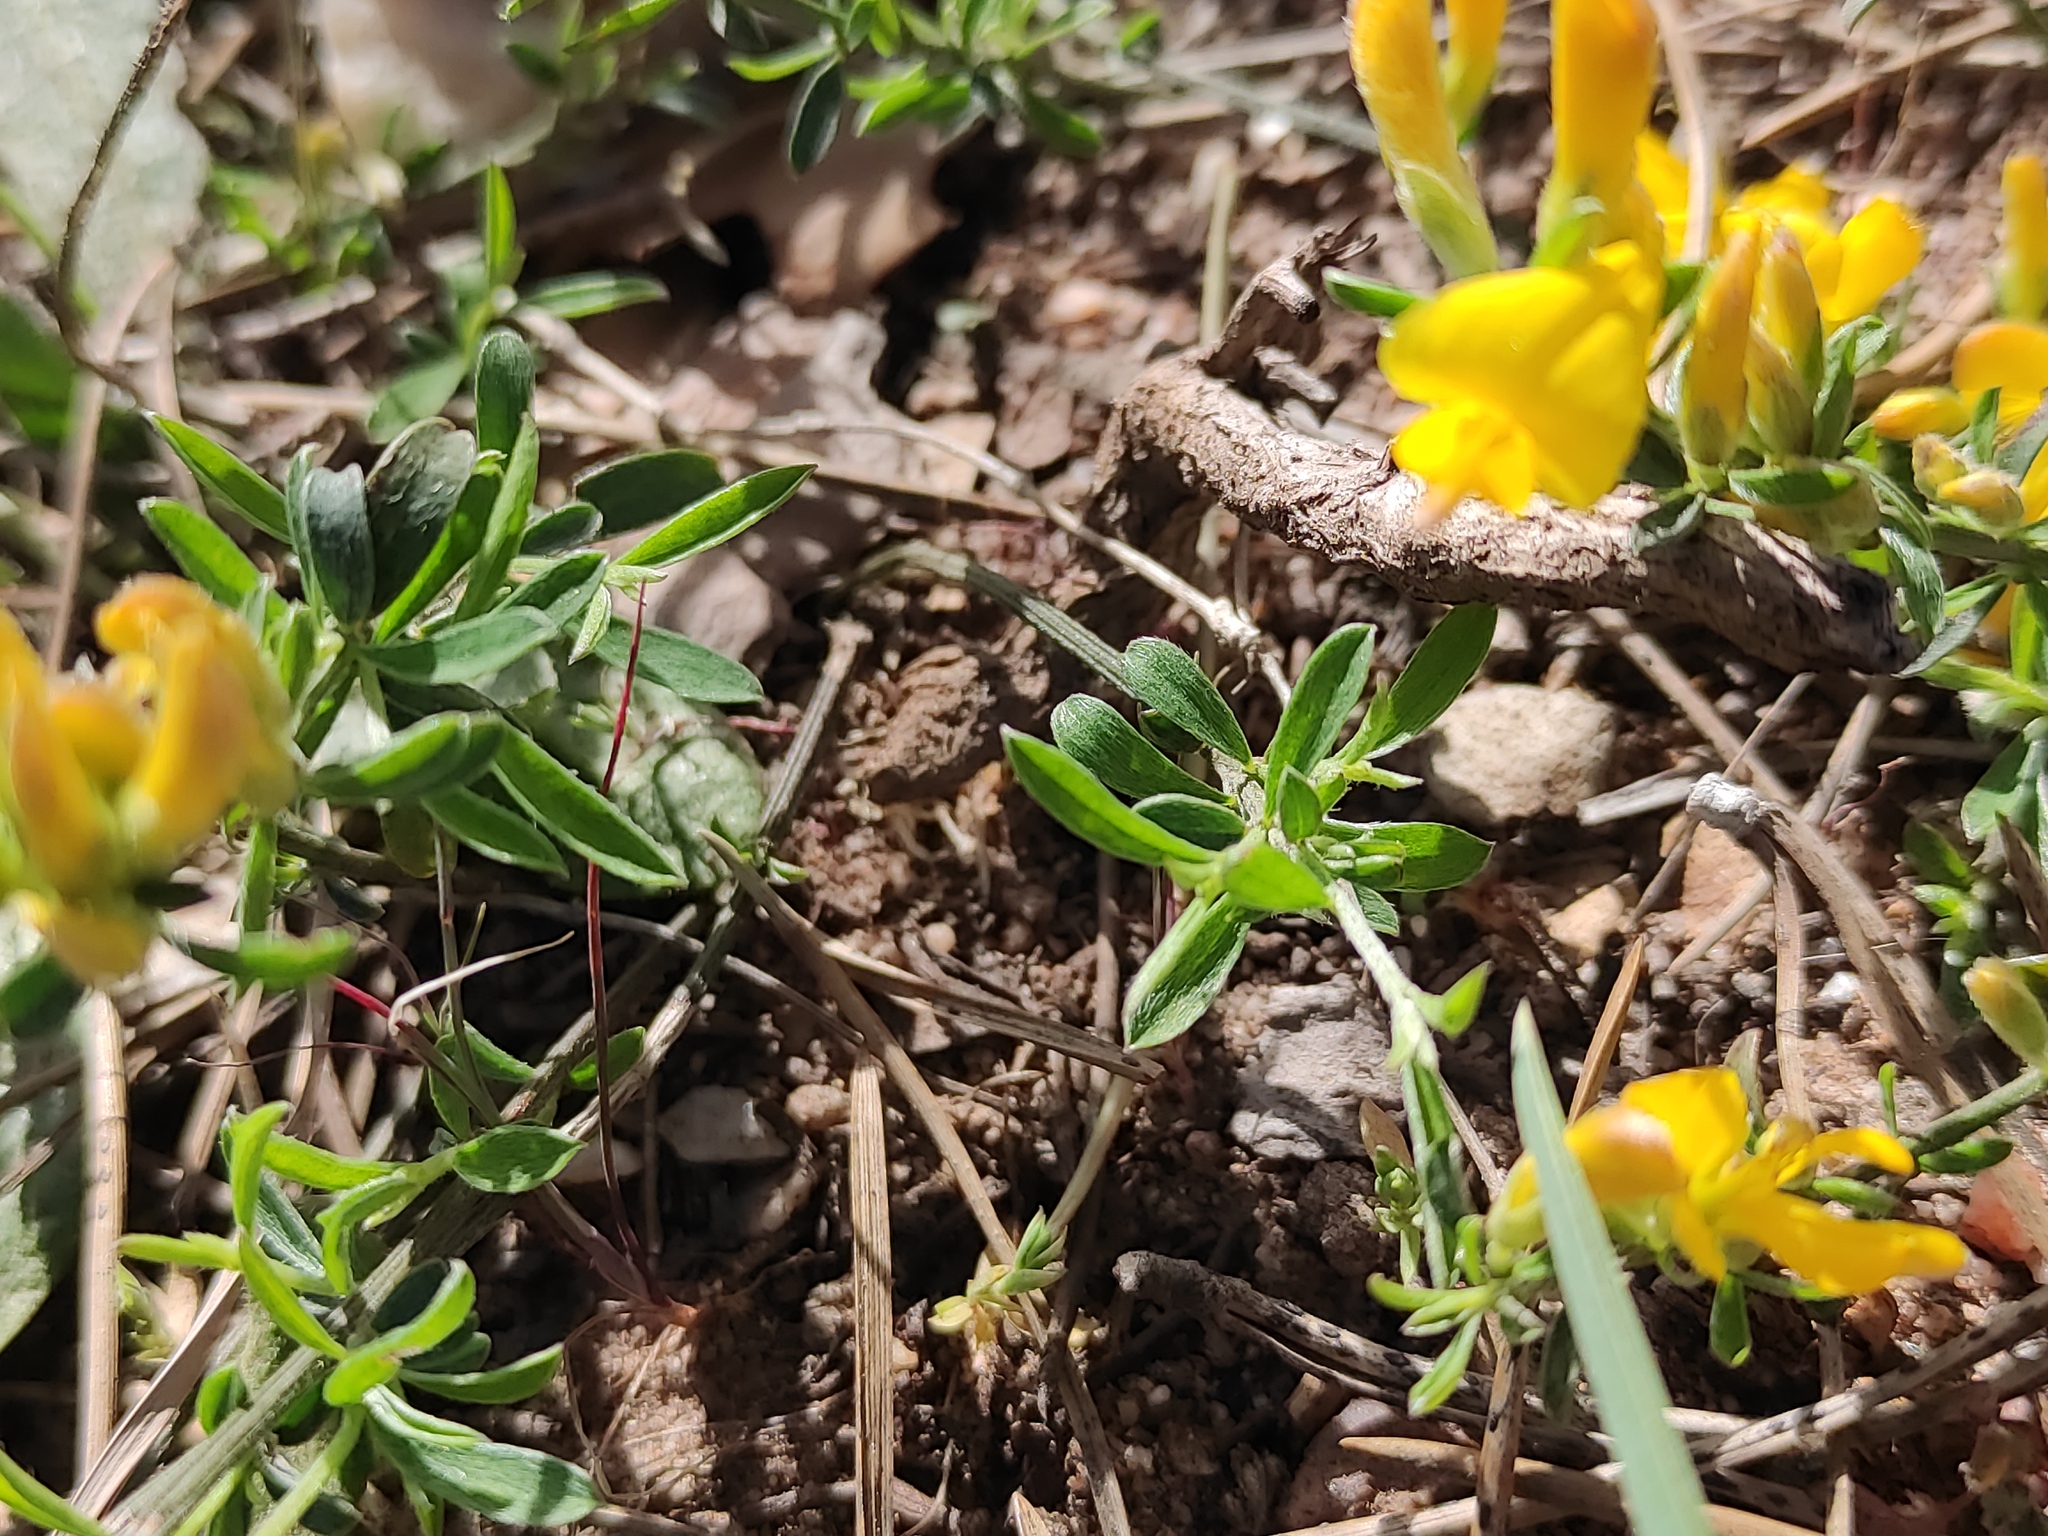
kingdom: Plantae
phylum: Tracheophyta
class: Magnoliopsida
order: Fabales
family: Fabaceae
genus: Genista
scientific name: Genista pilosa
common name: Hairy greenweed
